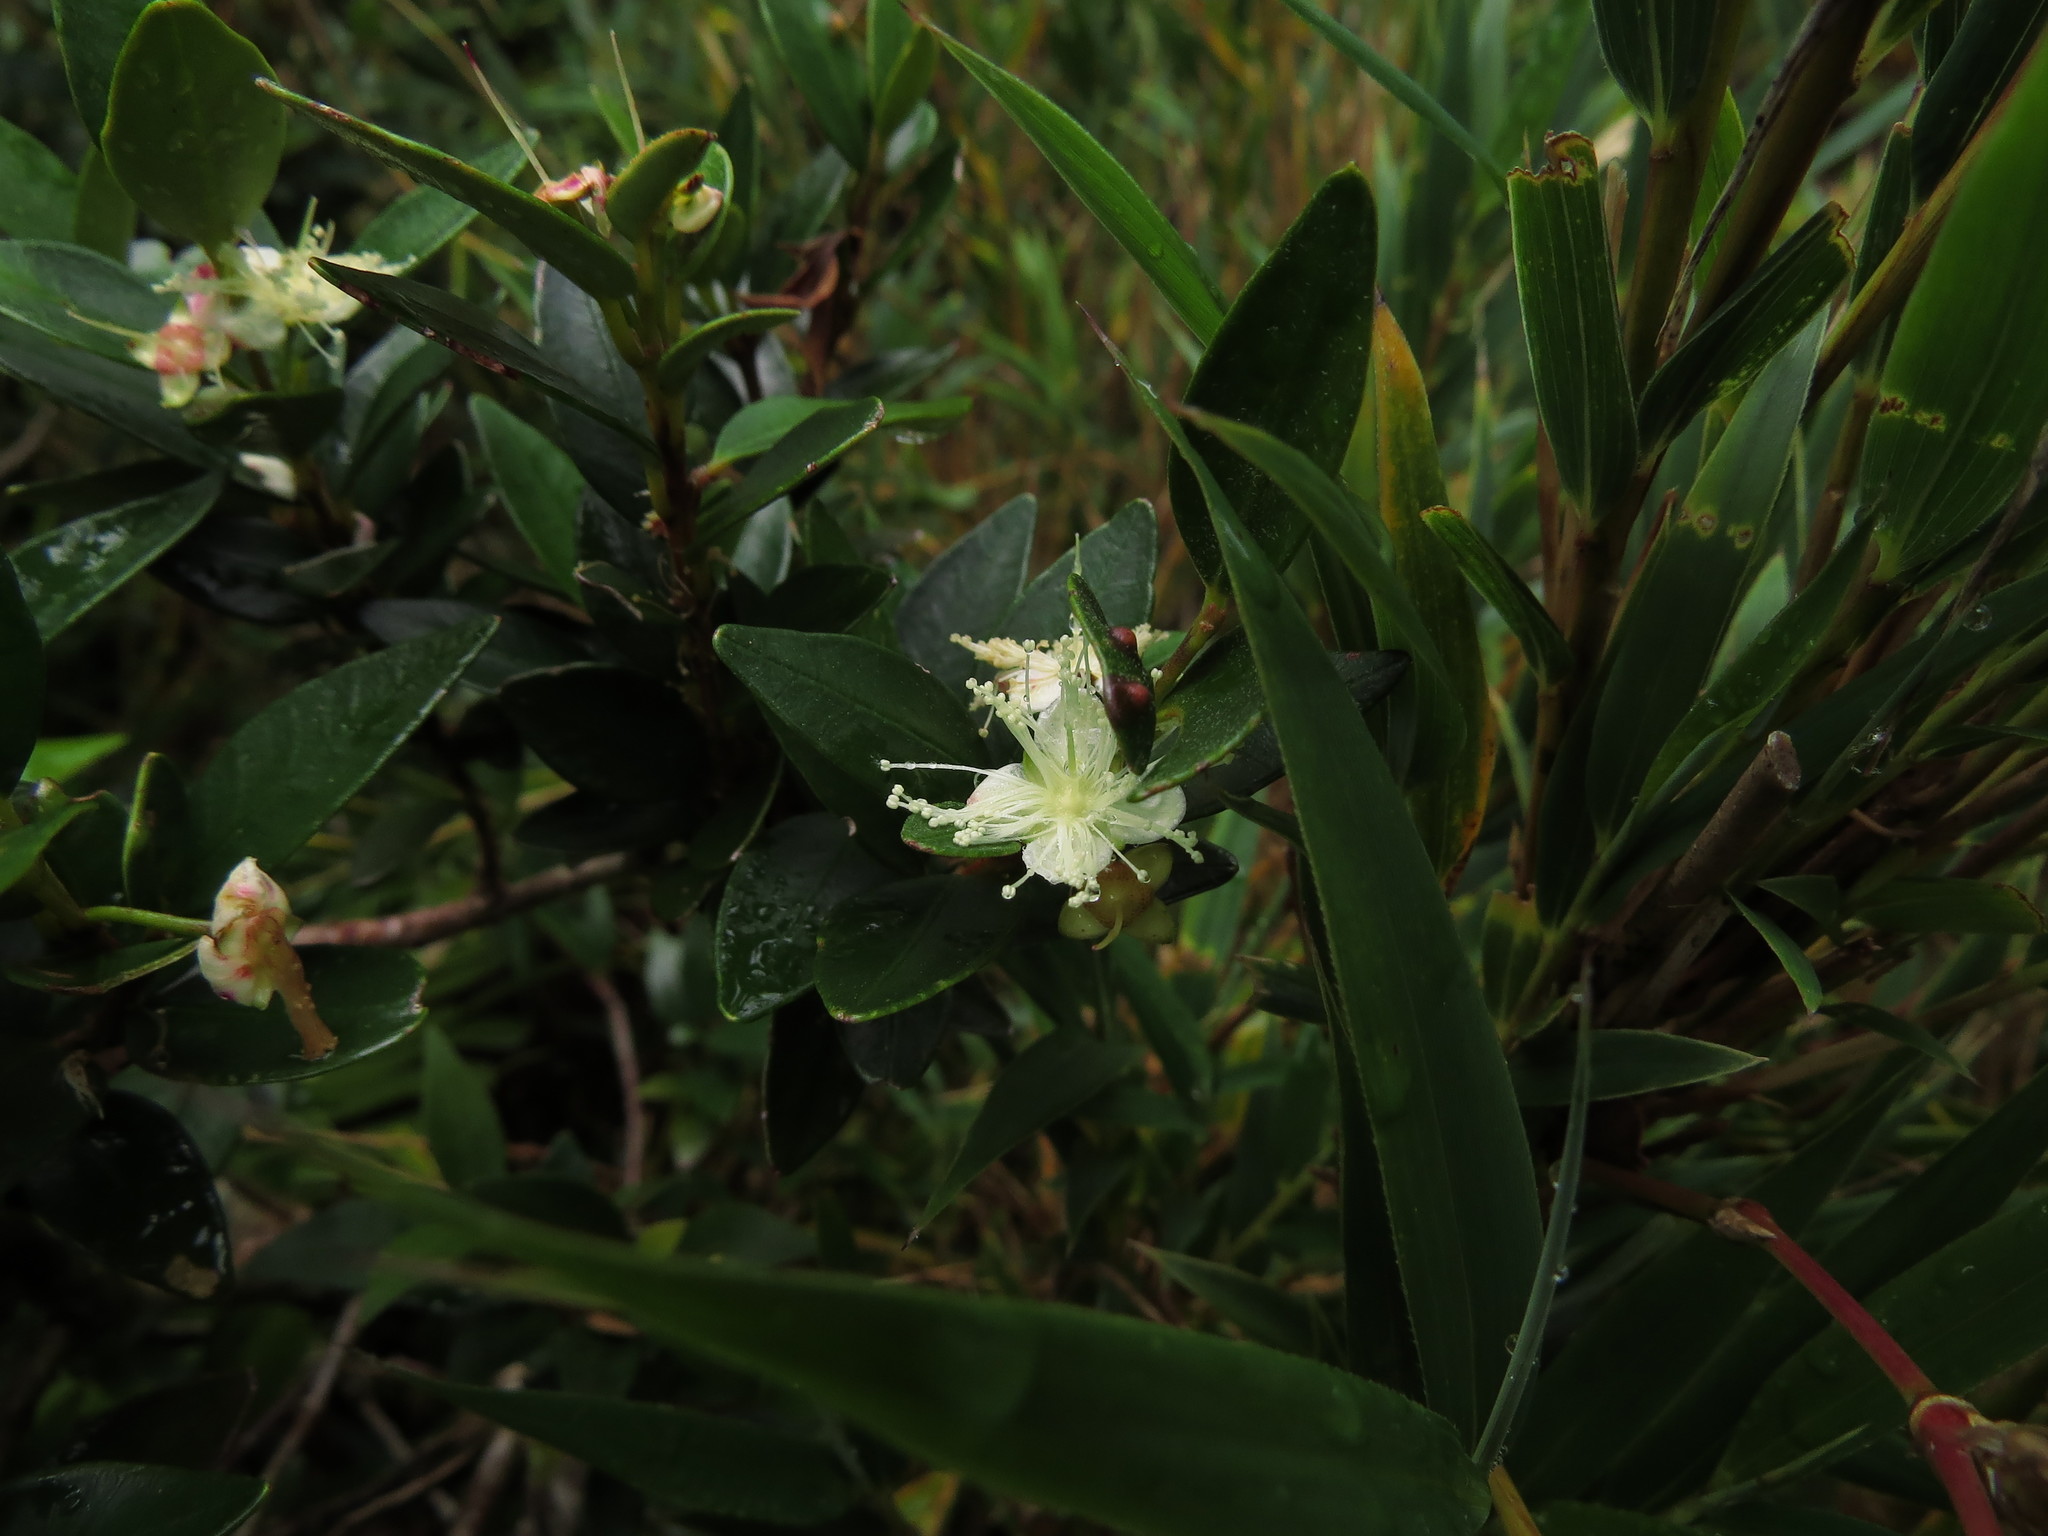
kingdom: Plantae
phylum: Tracheophyta
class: Magnoliopsida
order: Myrtales
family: Myrtaceae
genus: Myrceugenia
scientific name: Myrceugenia chrysocarpa
